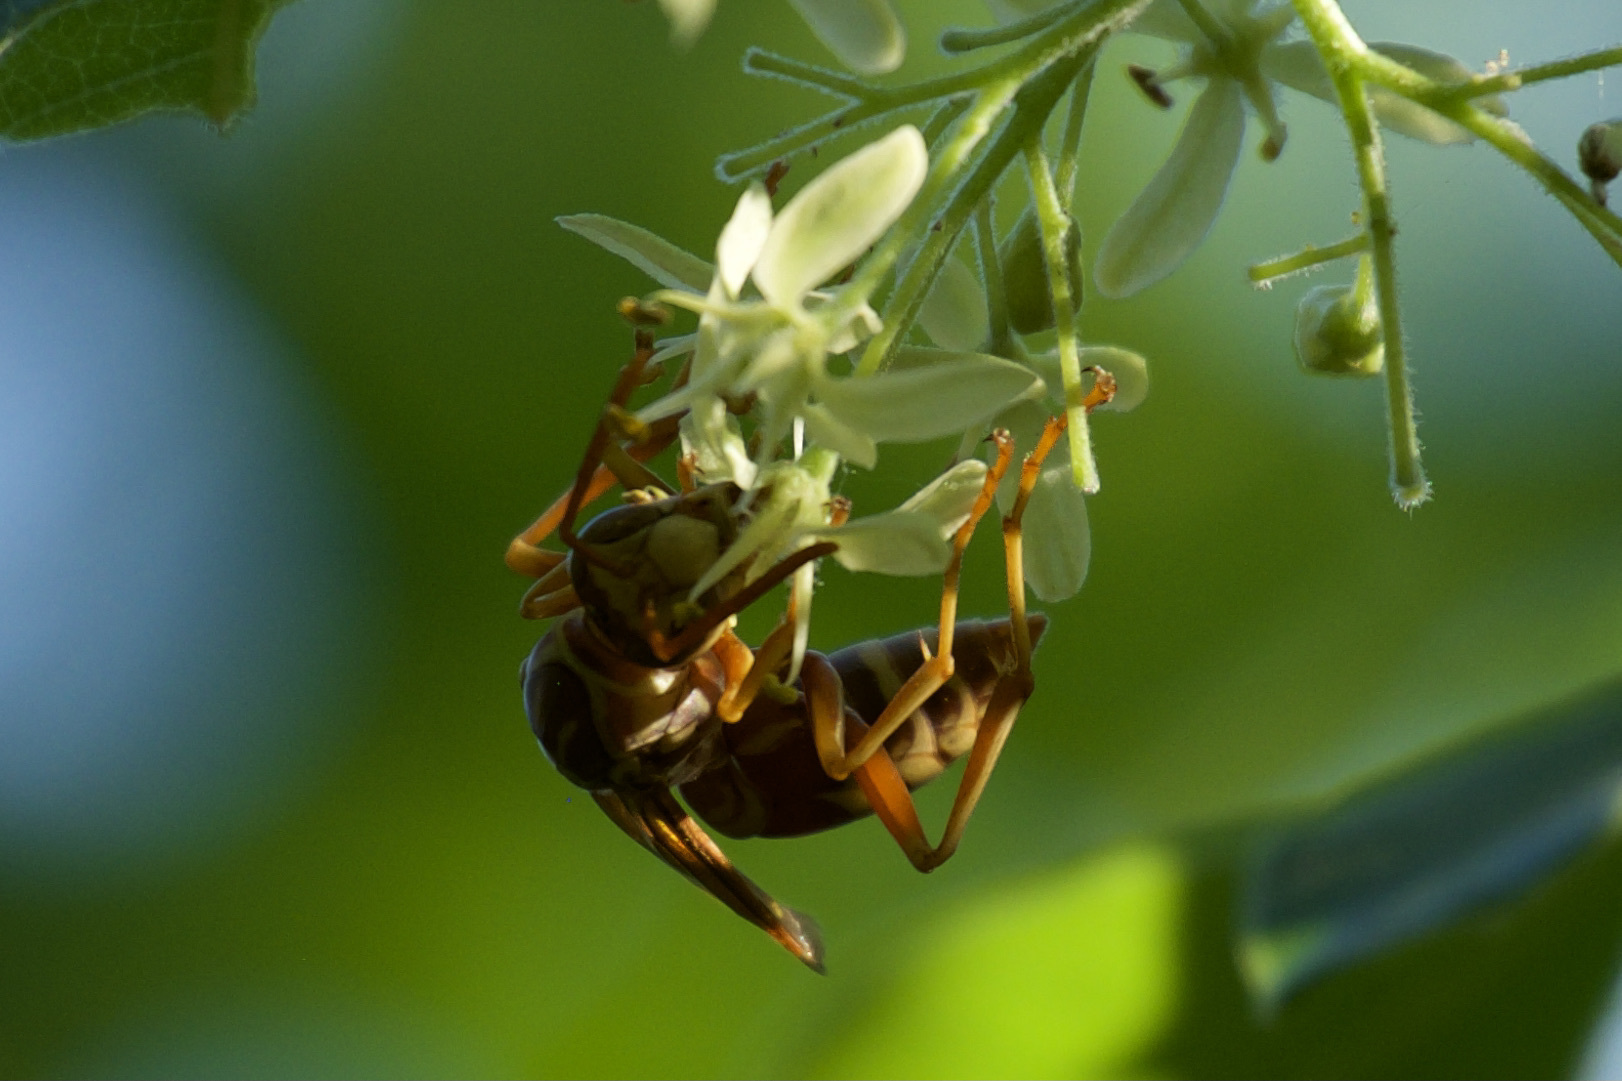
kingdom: Animalia
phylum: Arthropoda
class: Insecta
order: Hymenoptera
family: Eumenidae
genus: Polistes
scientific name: Polistes apachus
